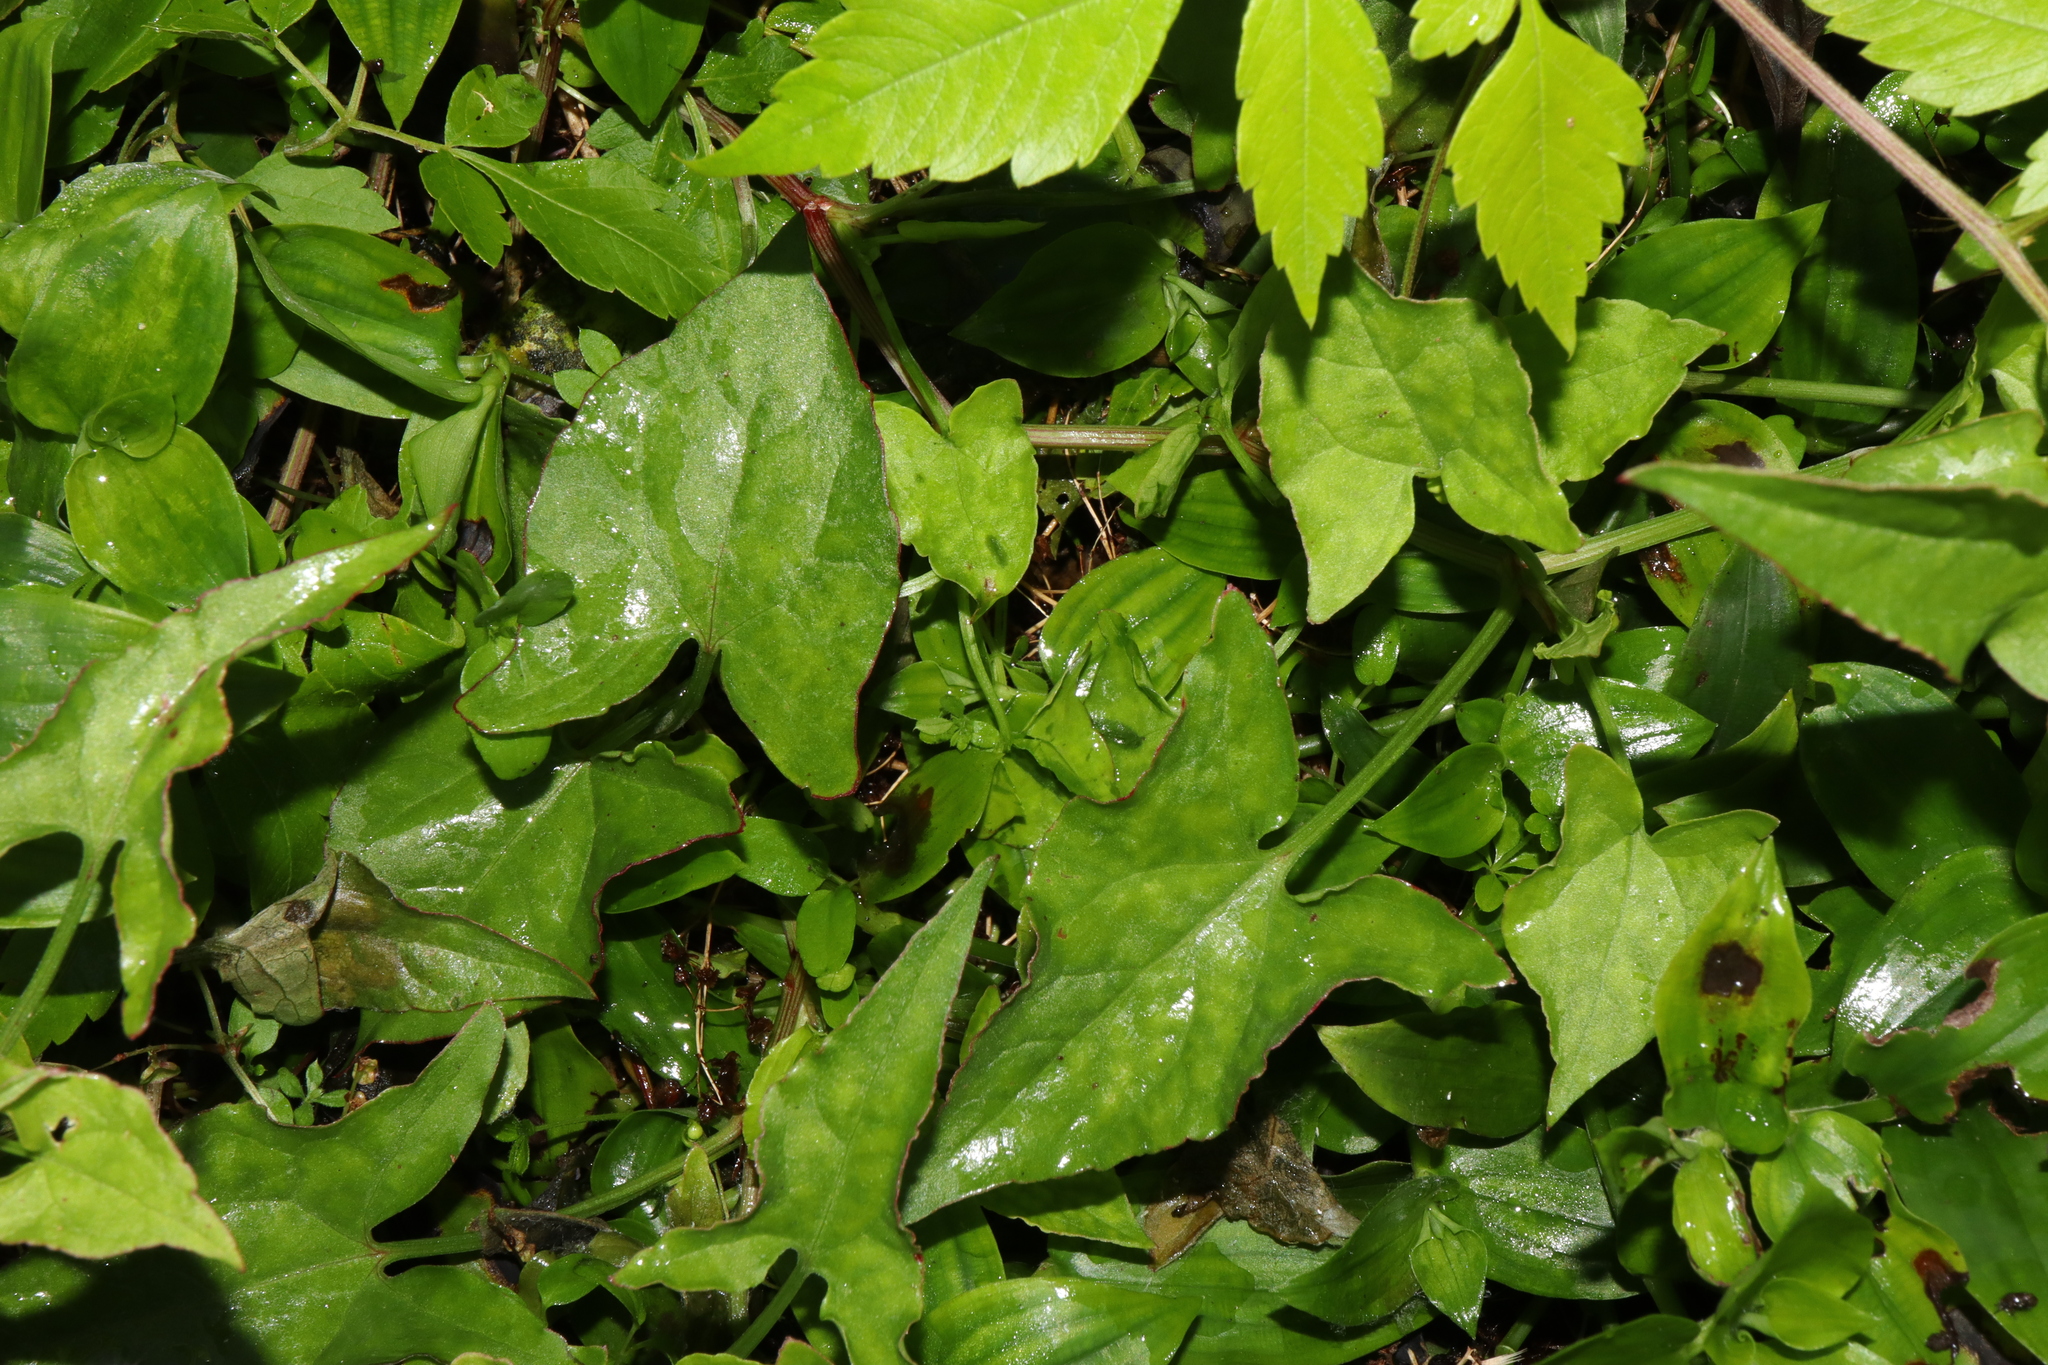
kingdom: Plantae
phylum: Tracheophyta
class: Magnoliopsida
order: Caryophyllales
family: Polygonaceae
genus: Rumex
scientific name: Rumex sagittatus
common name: Climbing dock
